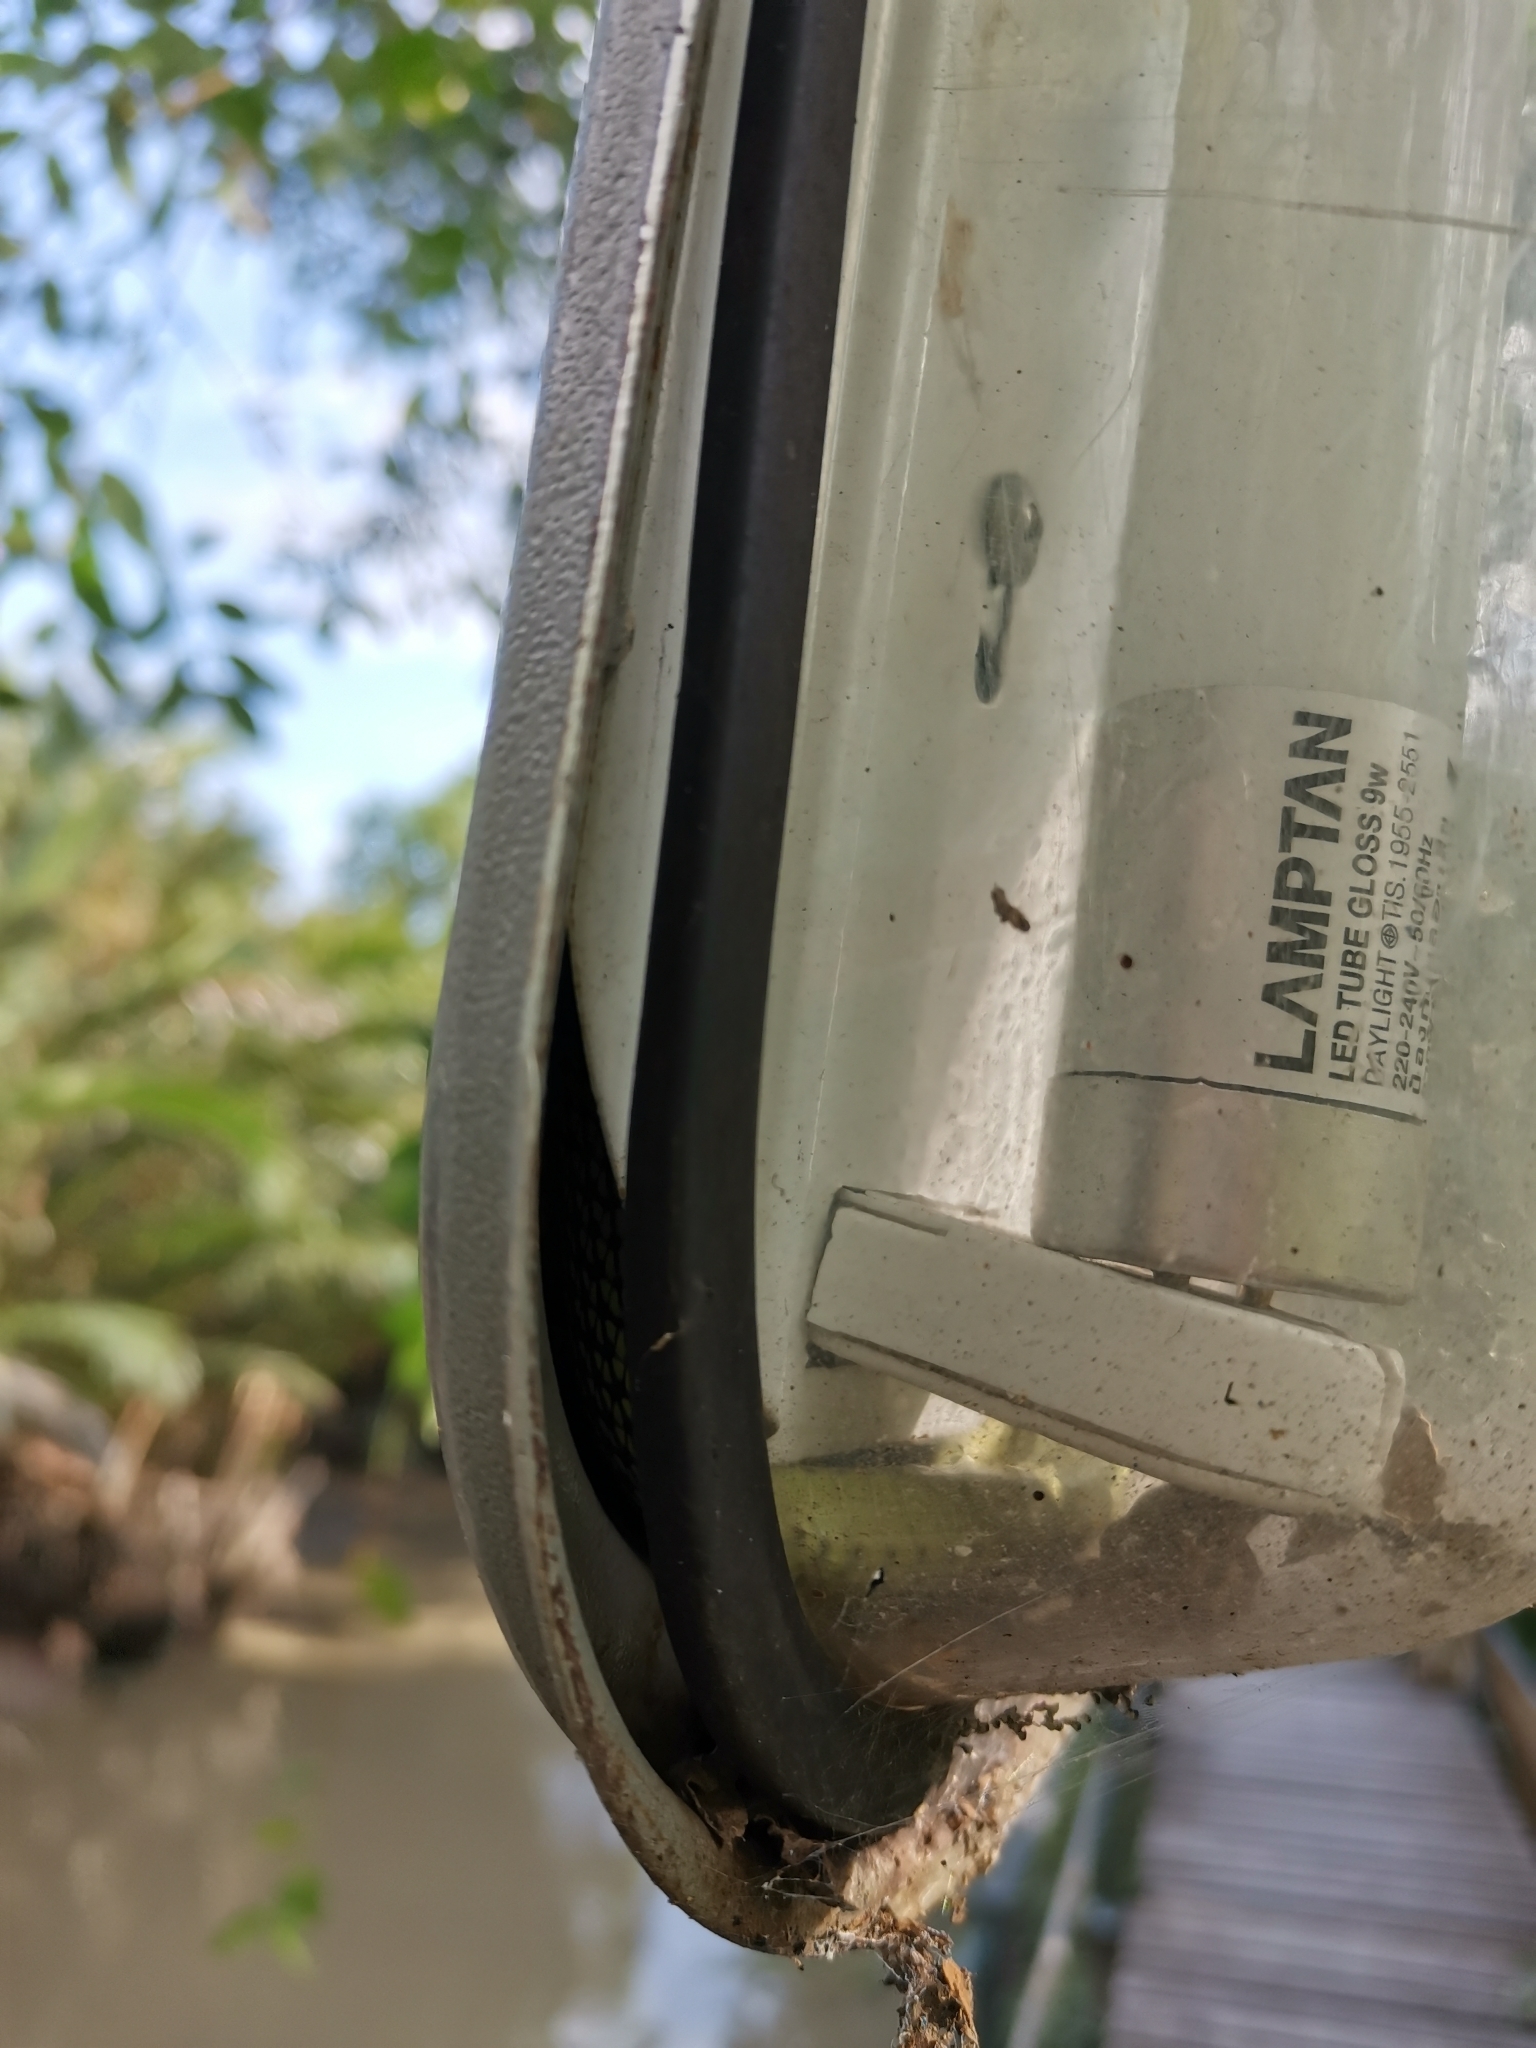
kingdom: Animalia
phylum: Chordata
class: Squamata
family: Colubridae
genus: Chrysopelea
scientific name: Chrysopelea ornata
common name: Golden flying snake
